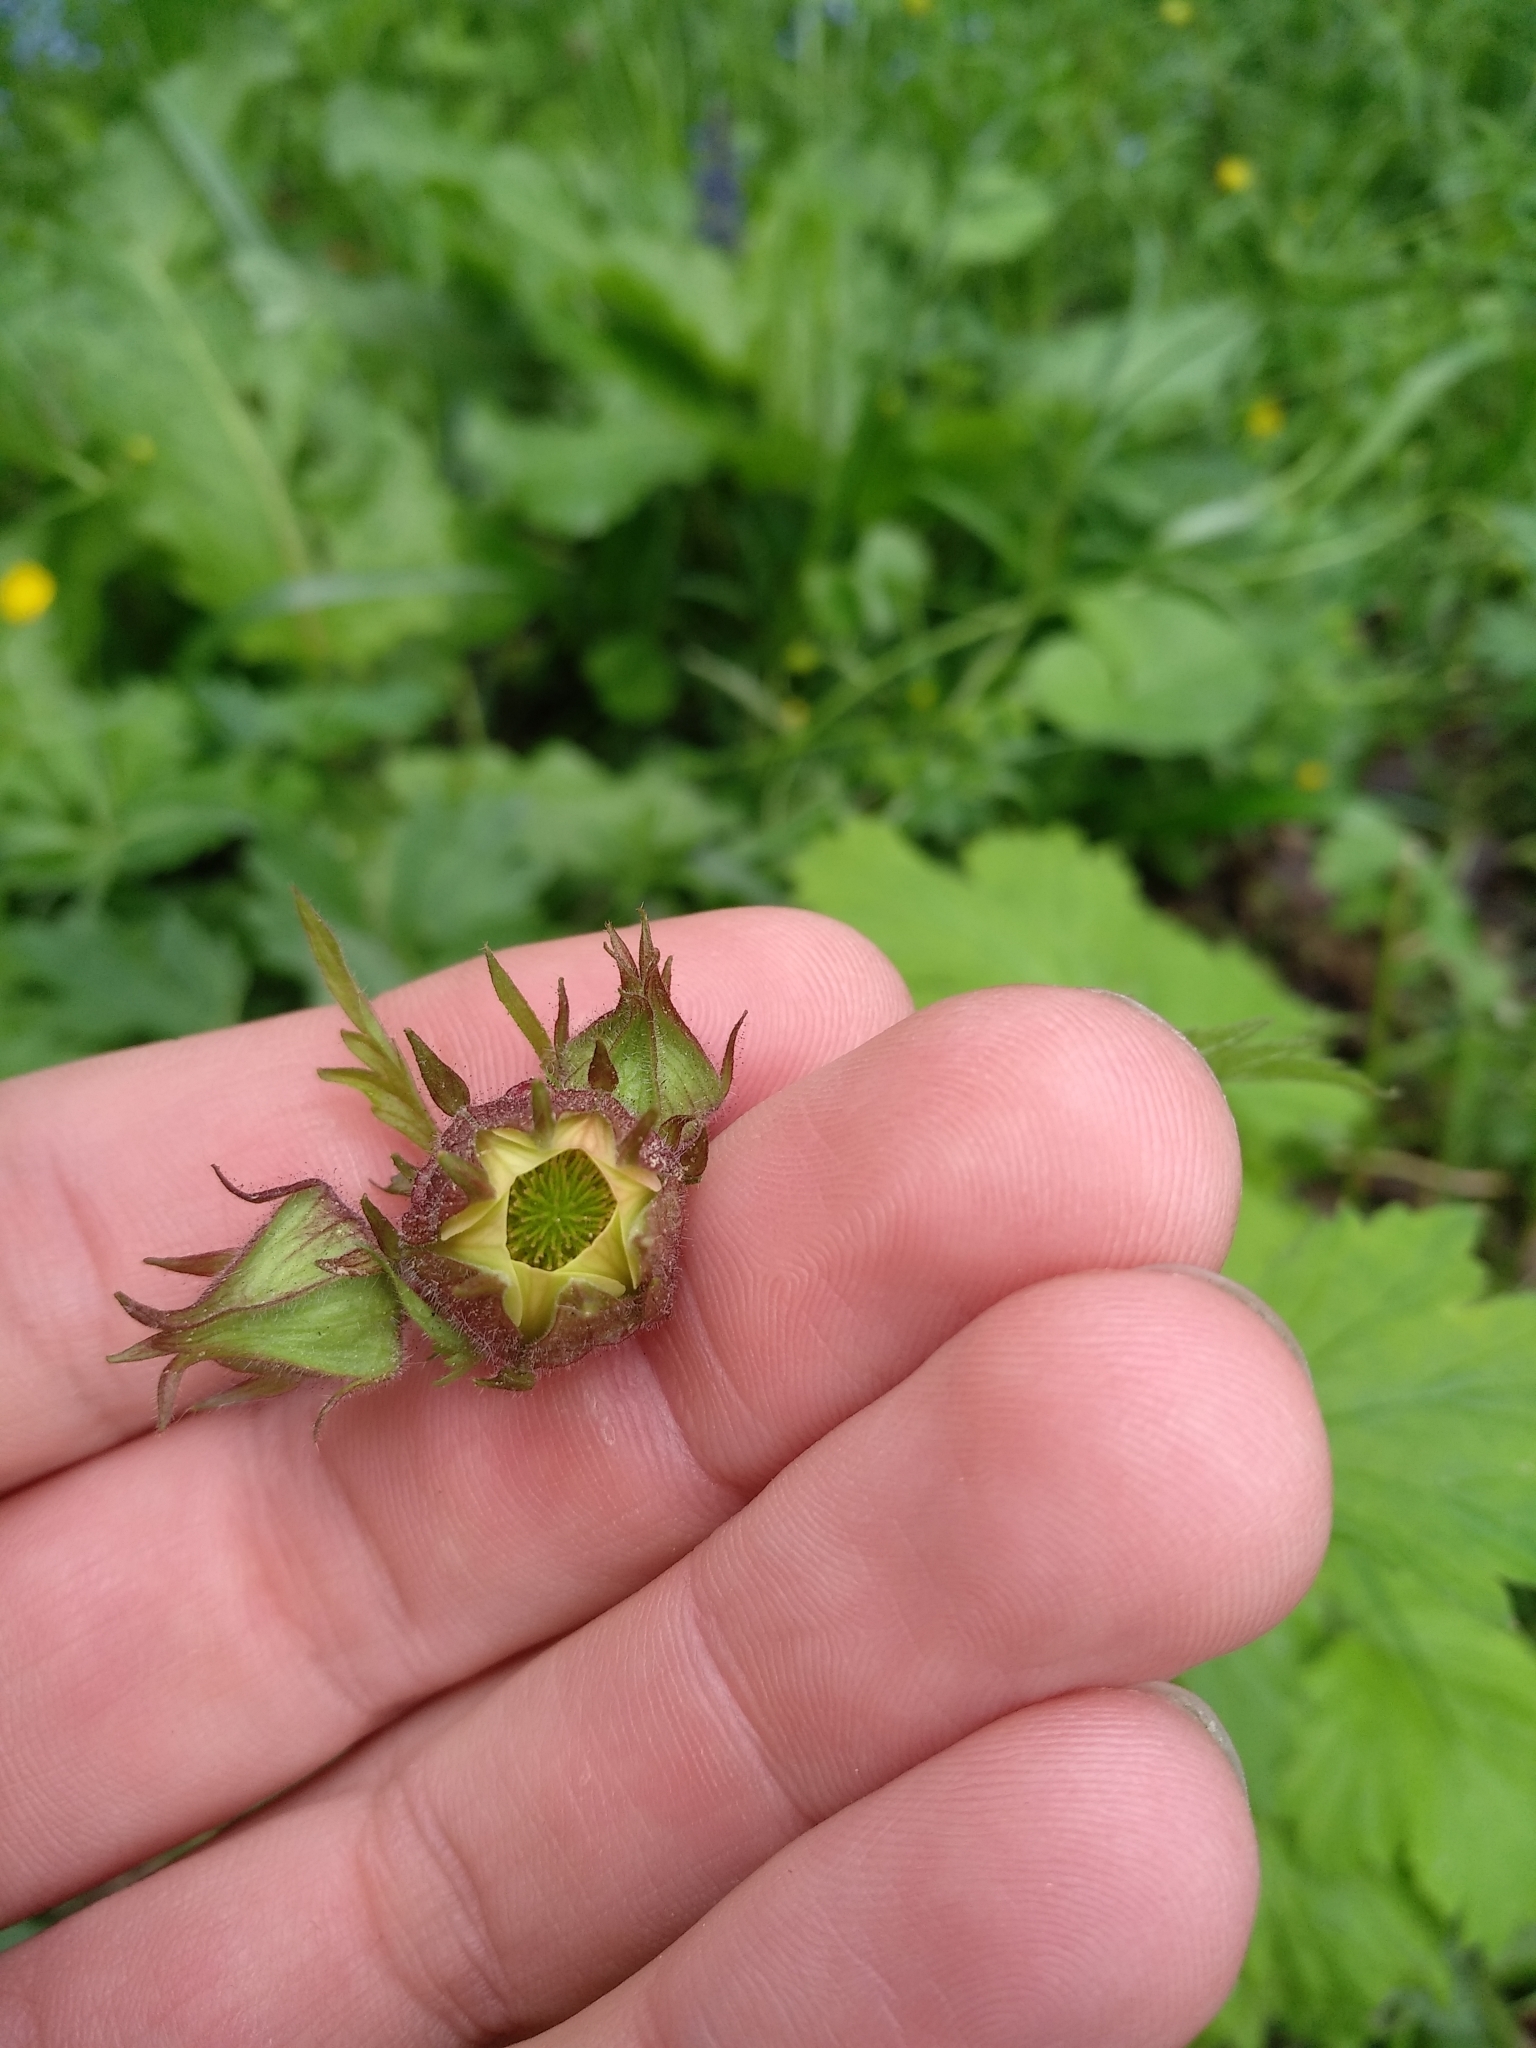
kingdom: Plantae
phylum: Tracheophyta
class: Magnoliopsida
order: Rosales
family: Rosaceae
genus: Geum
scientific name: Geum rivale
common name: Water avens
